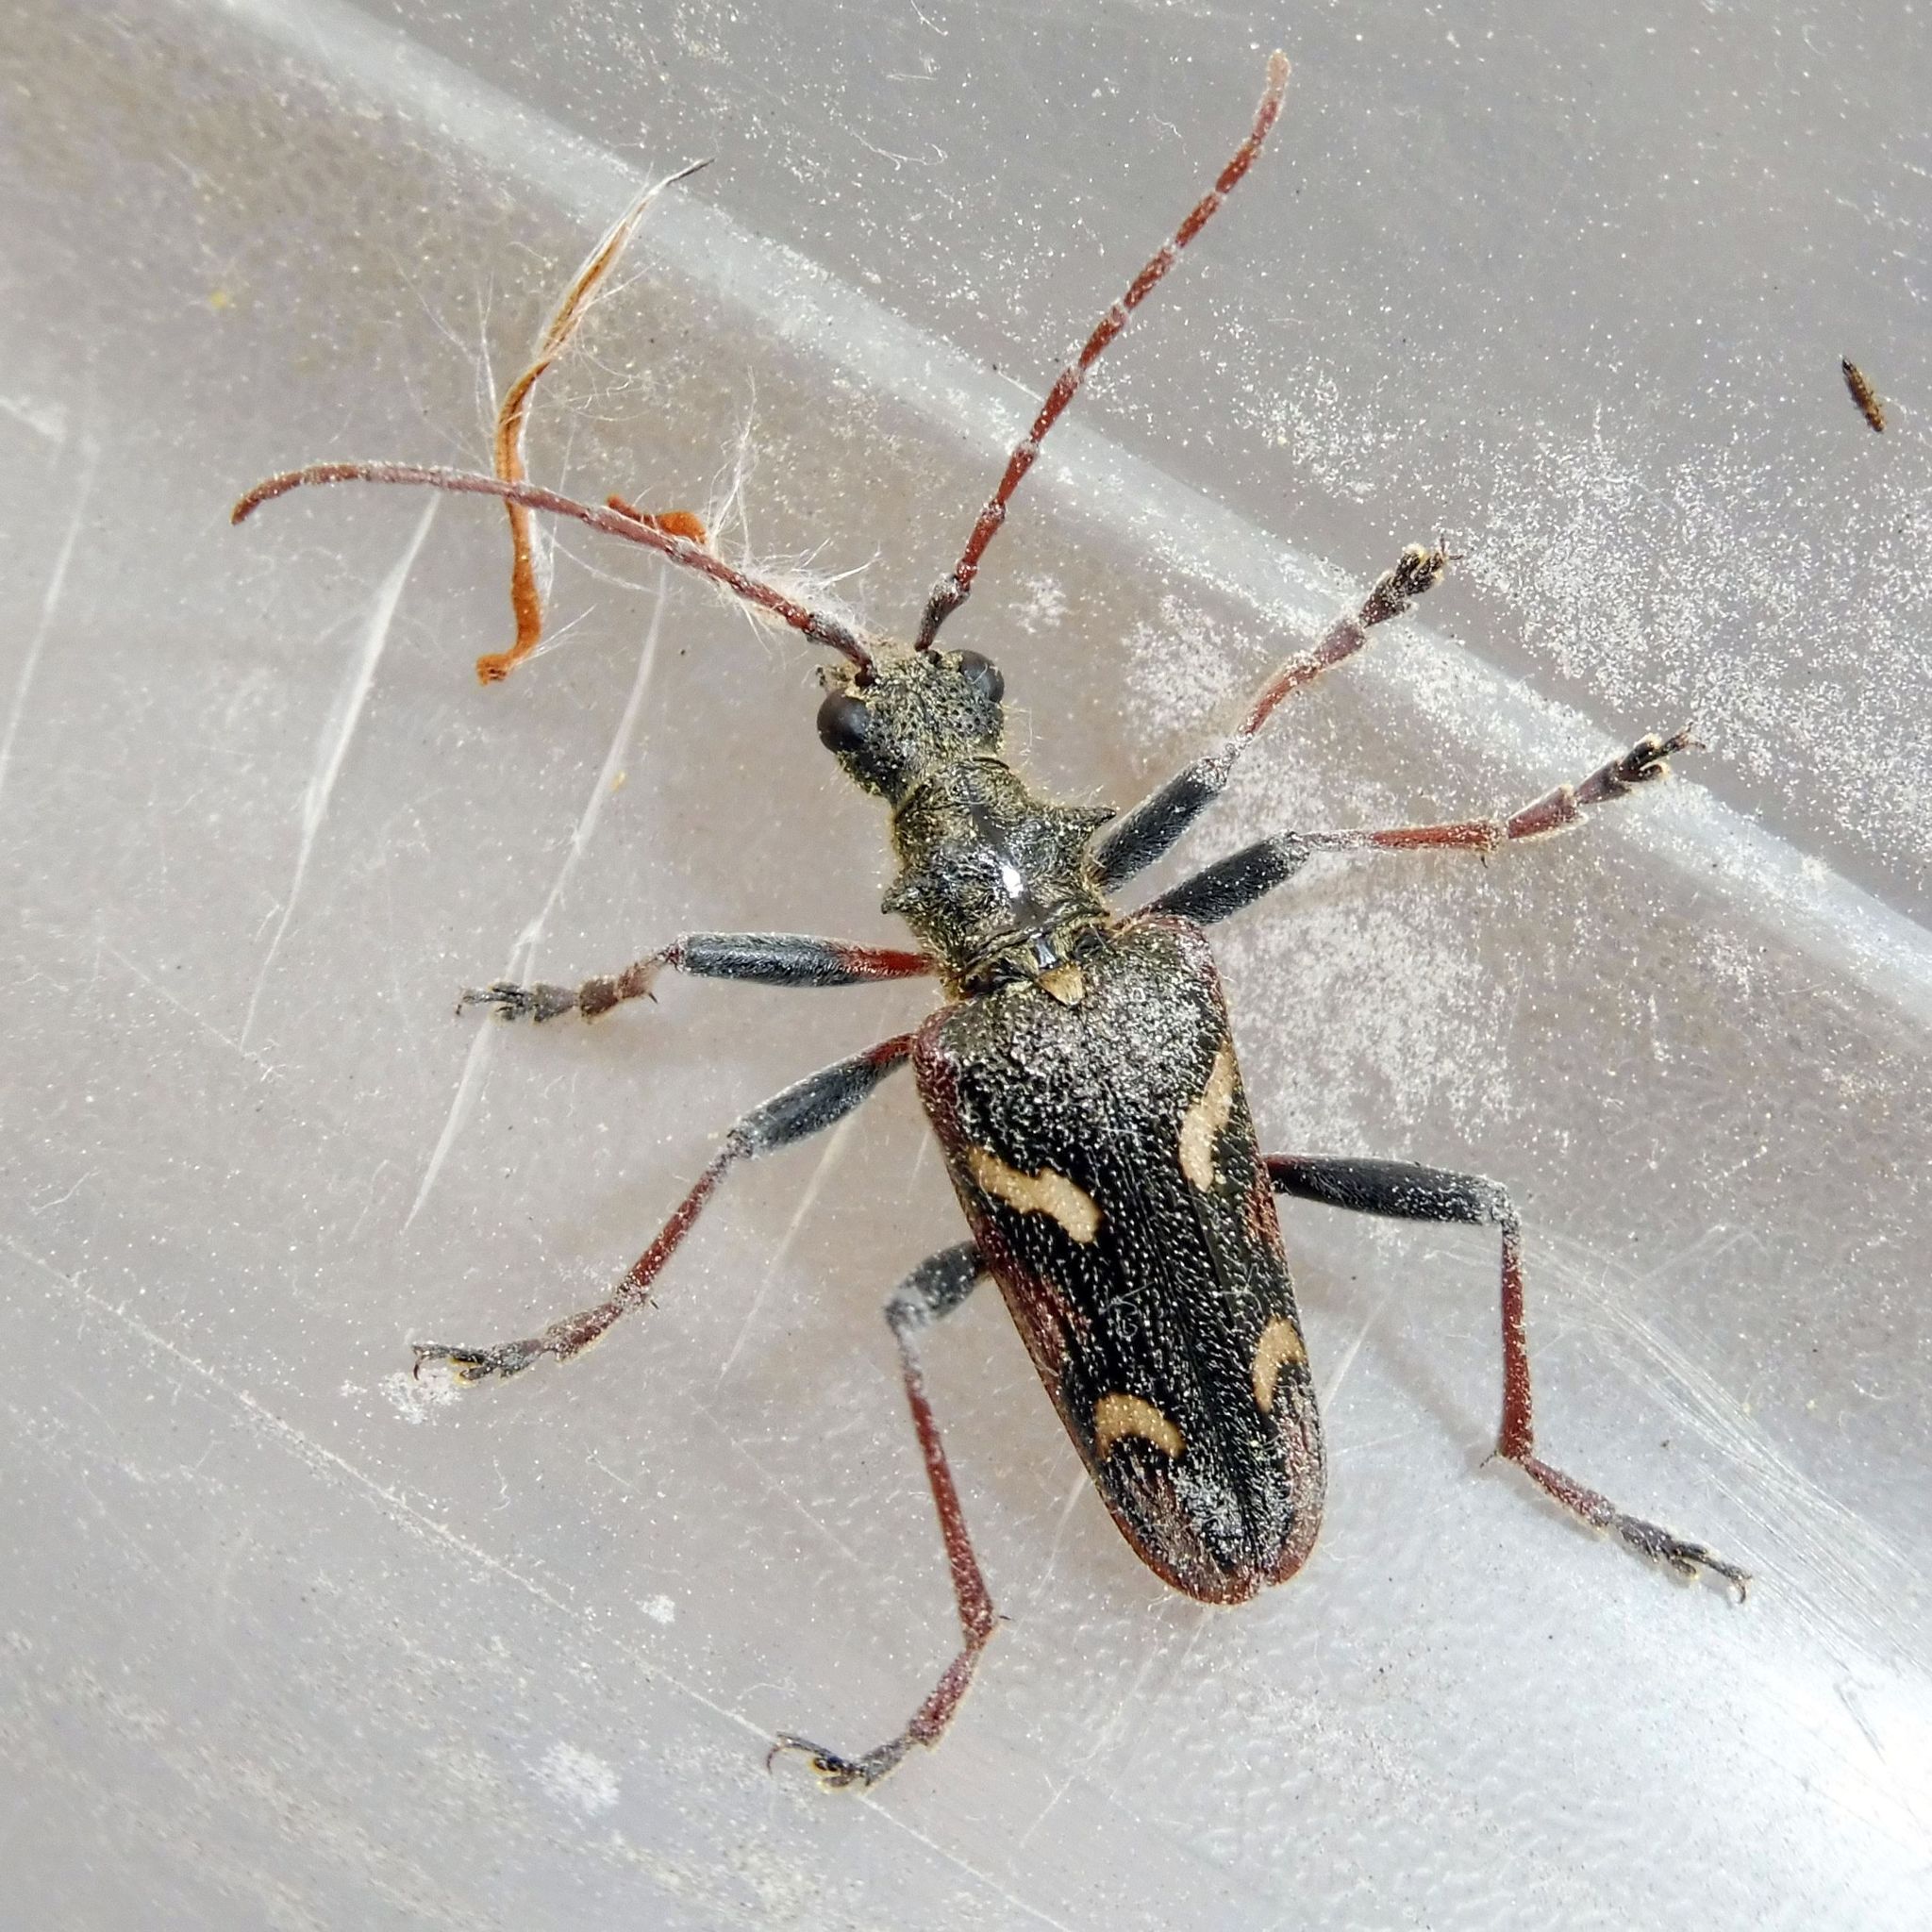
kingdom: Animalia
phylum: Arthropoda
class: Insecta
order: Coleoptera
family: Cerambycidae
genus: Rhagium
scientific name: Rhagium bifasciatum
